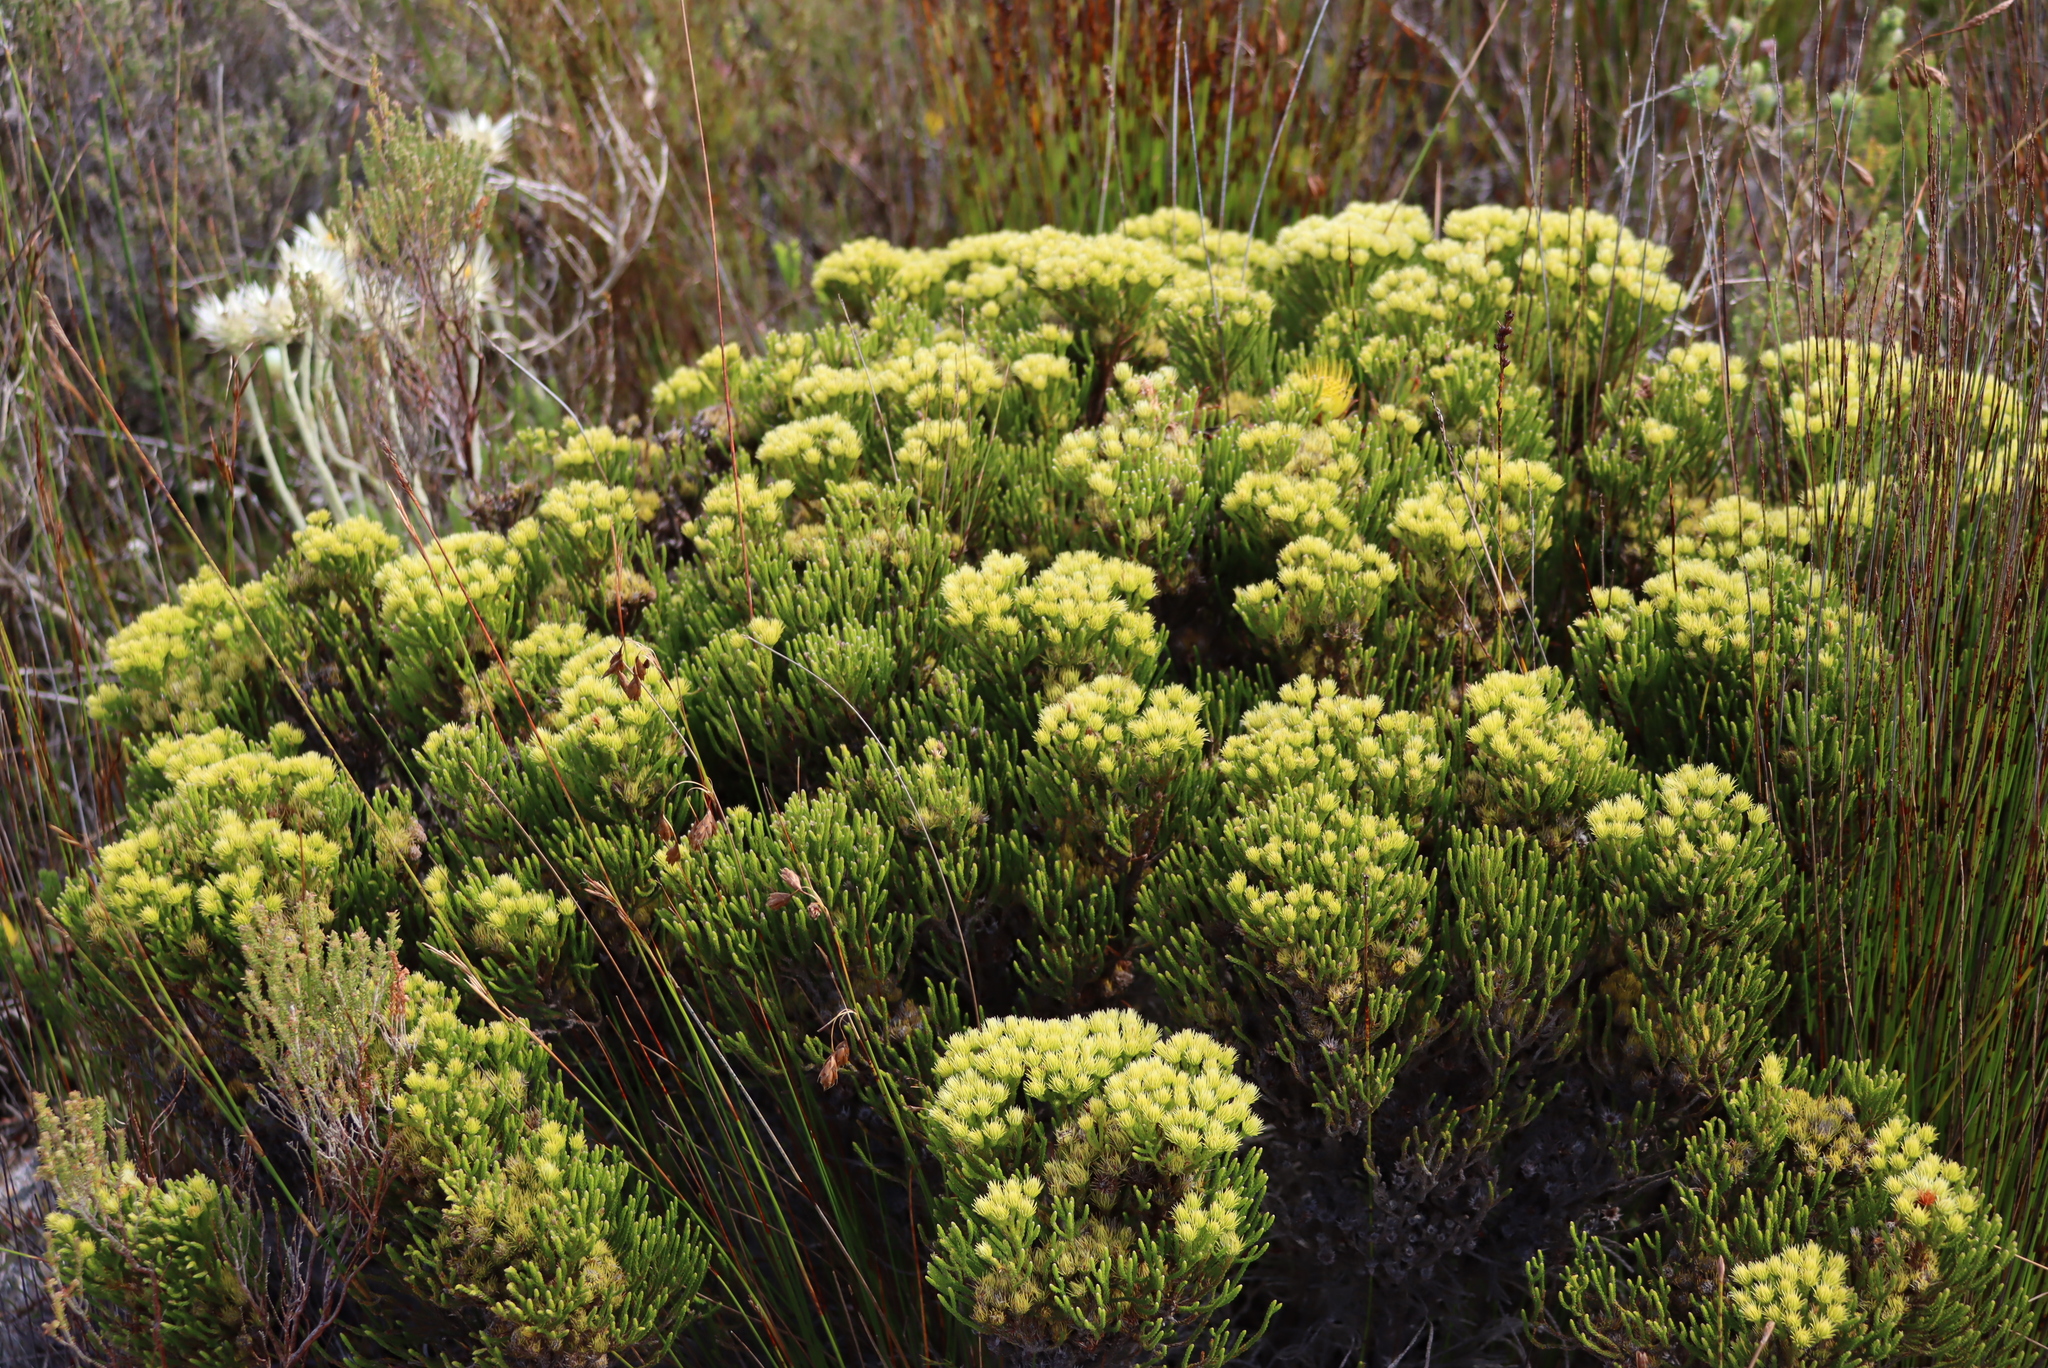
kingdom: Plantae
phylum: Tracheophyta
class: Magnoliopsida
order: Bruniales
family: Bruniaceae
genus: Brunia
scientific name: Brunia paleacea
